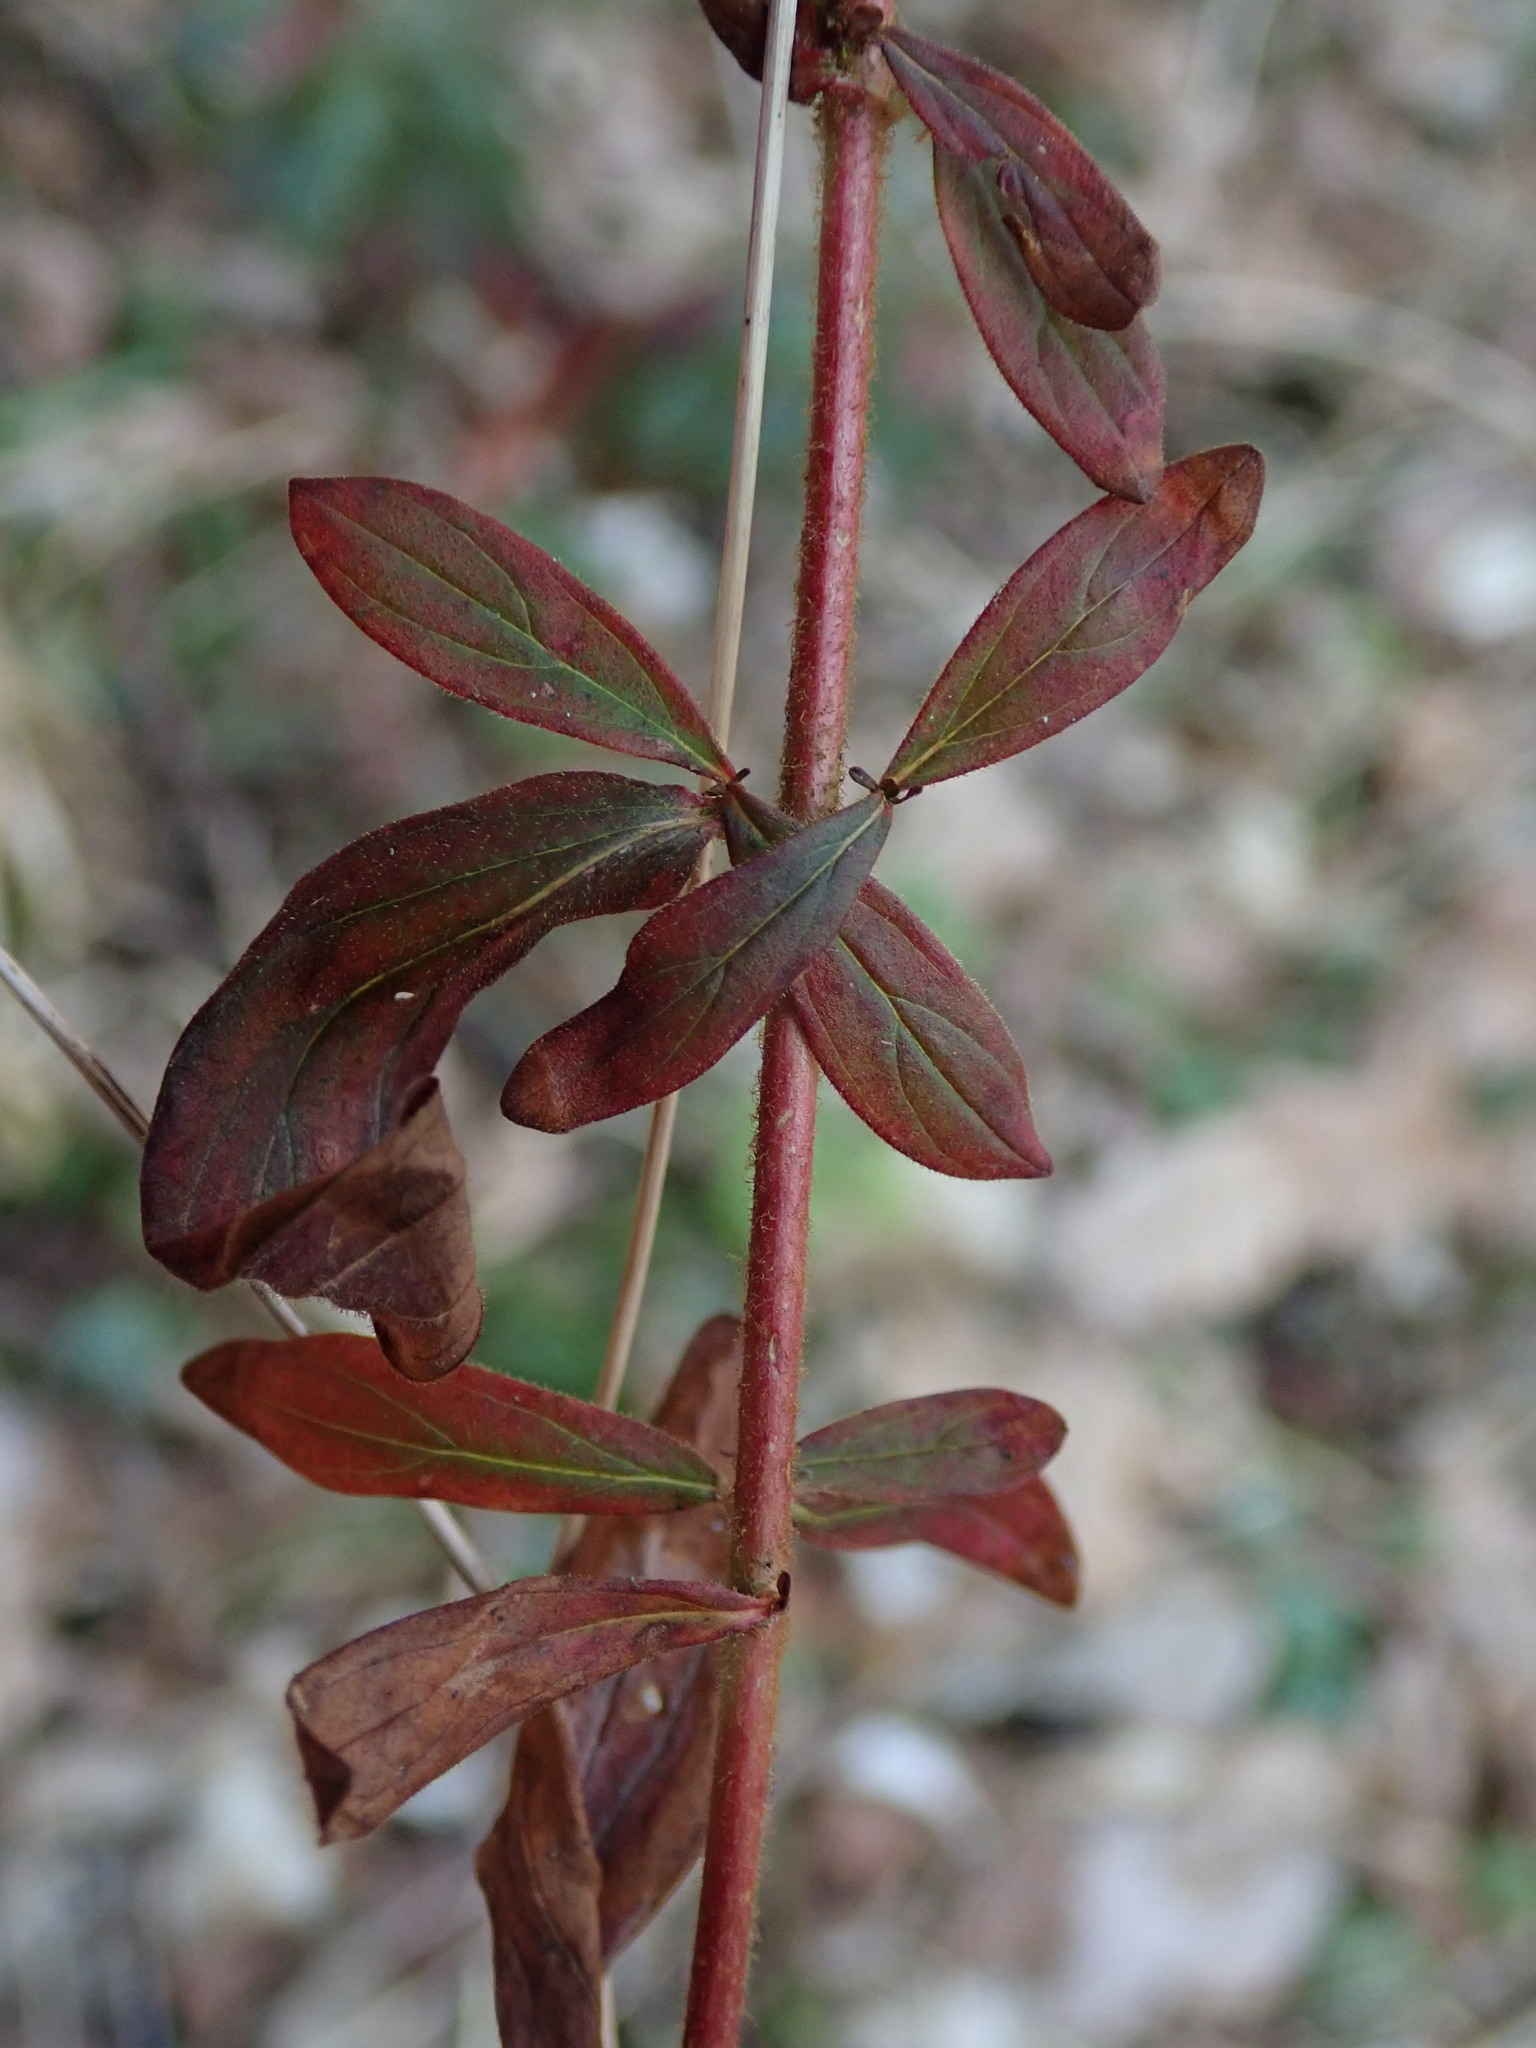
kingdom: Plantae
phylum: Tracheophyta
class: Magnoliopsida
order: Malpighiales
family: Hypericaceae
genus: Hypericum
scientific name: Hypericum hirsutum
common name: Hairy st. john's-wort
